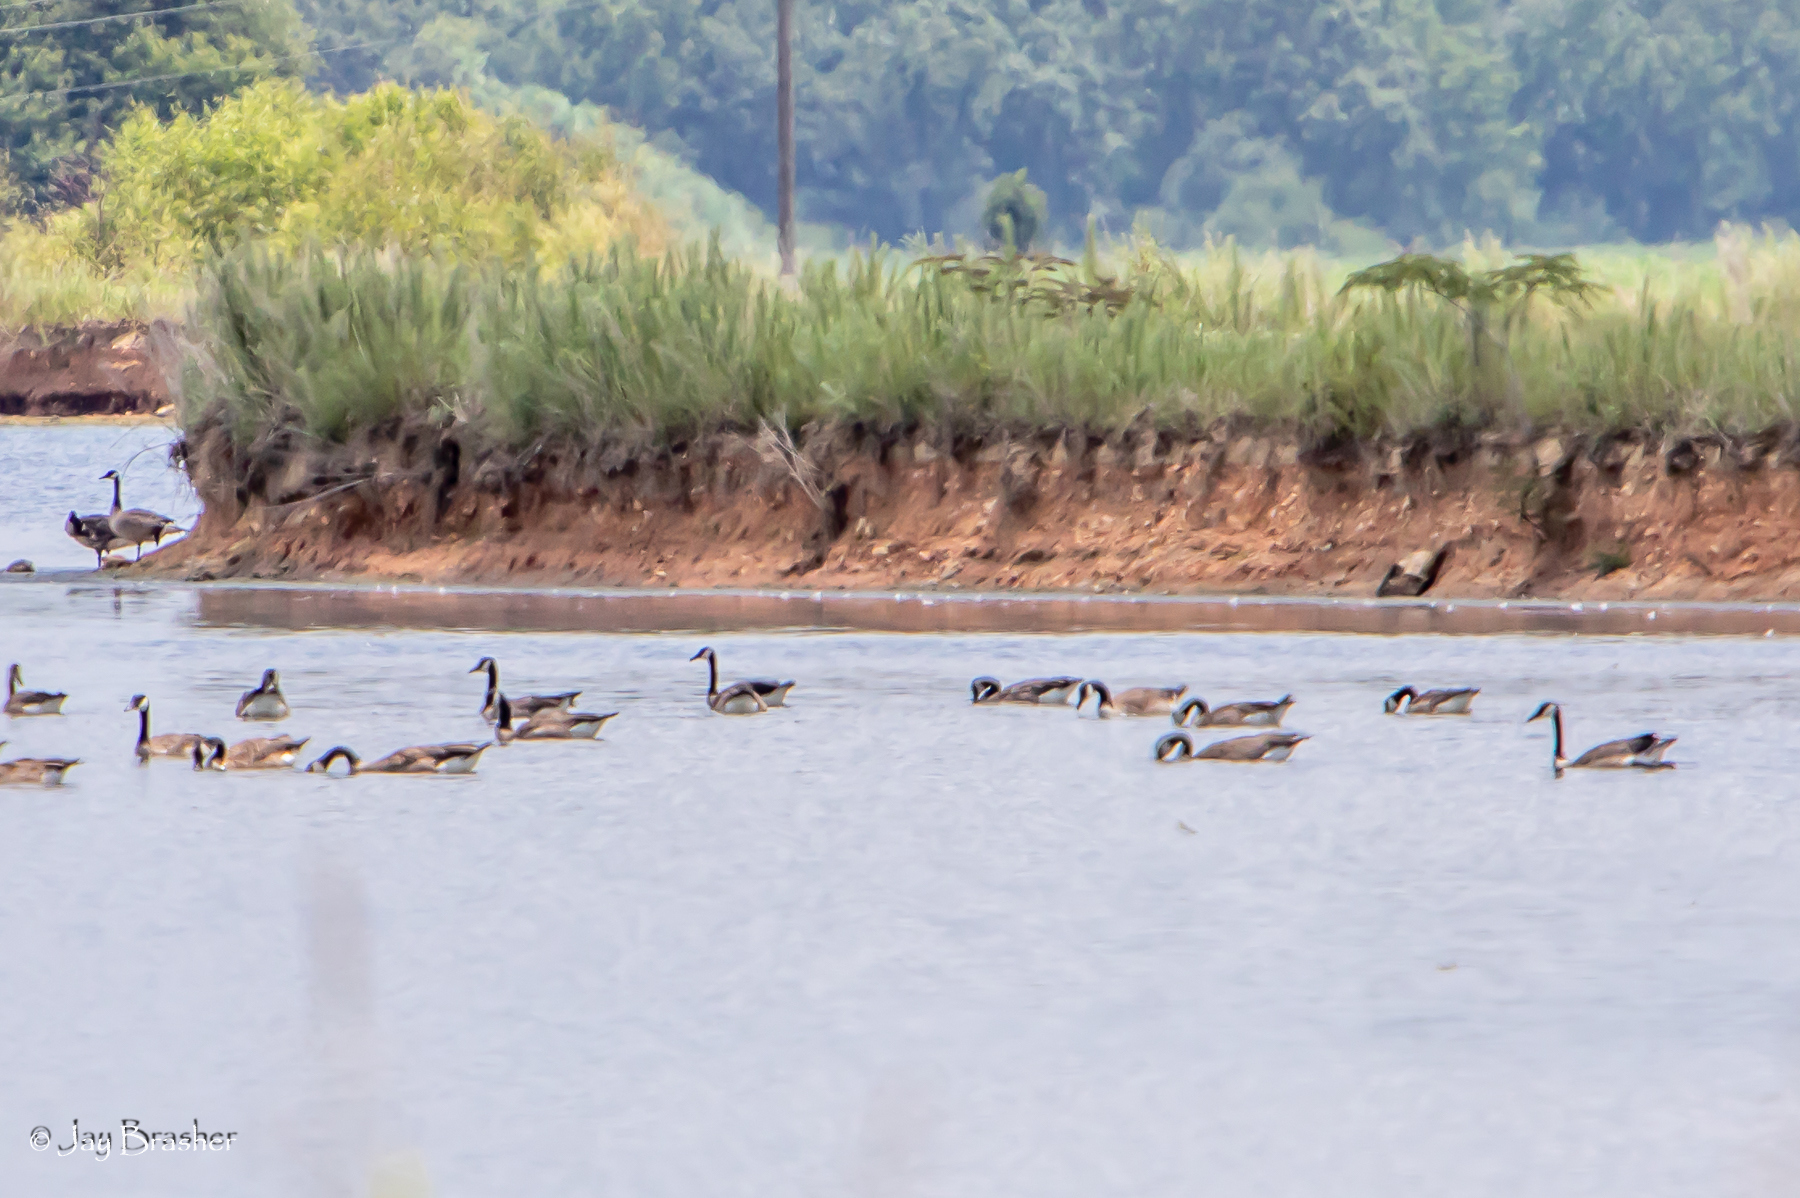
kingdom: Animalia
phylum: Chordata
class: Aves
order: Anseriformes
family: Anatidae
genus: Branta
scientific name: Branta canadensis
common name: Canada goose
